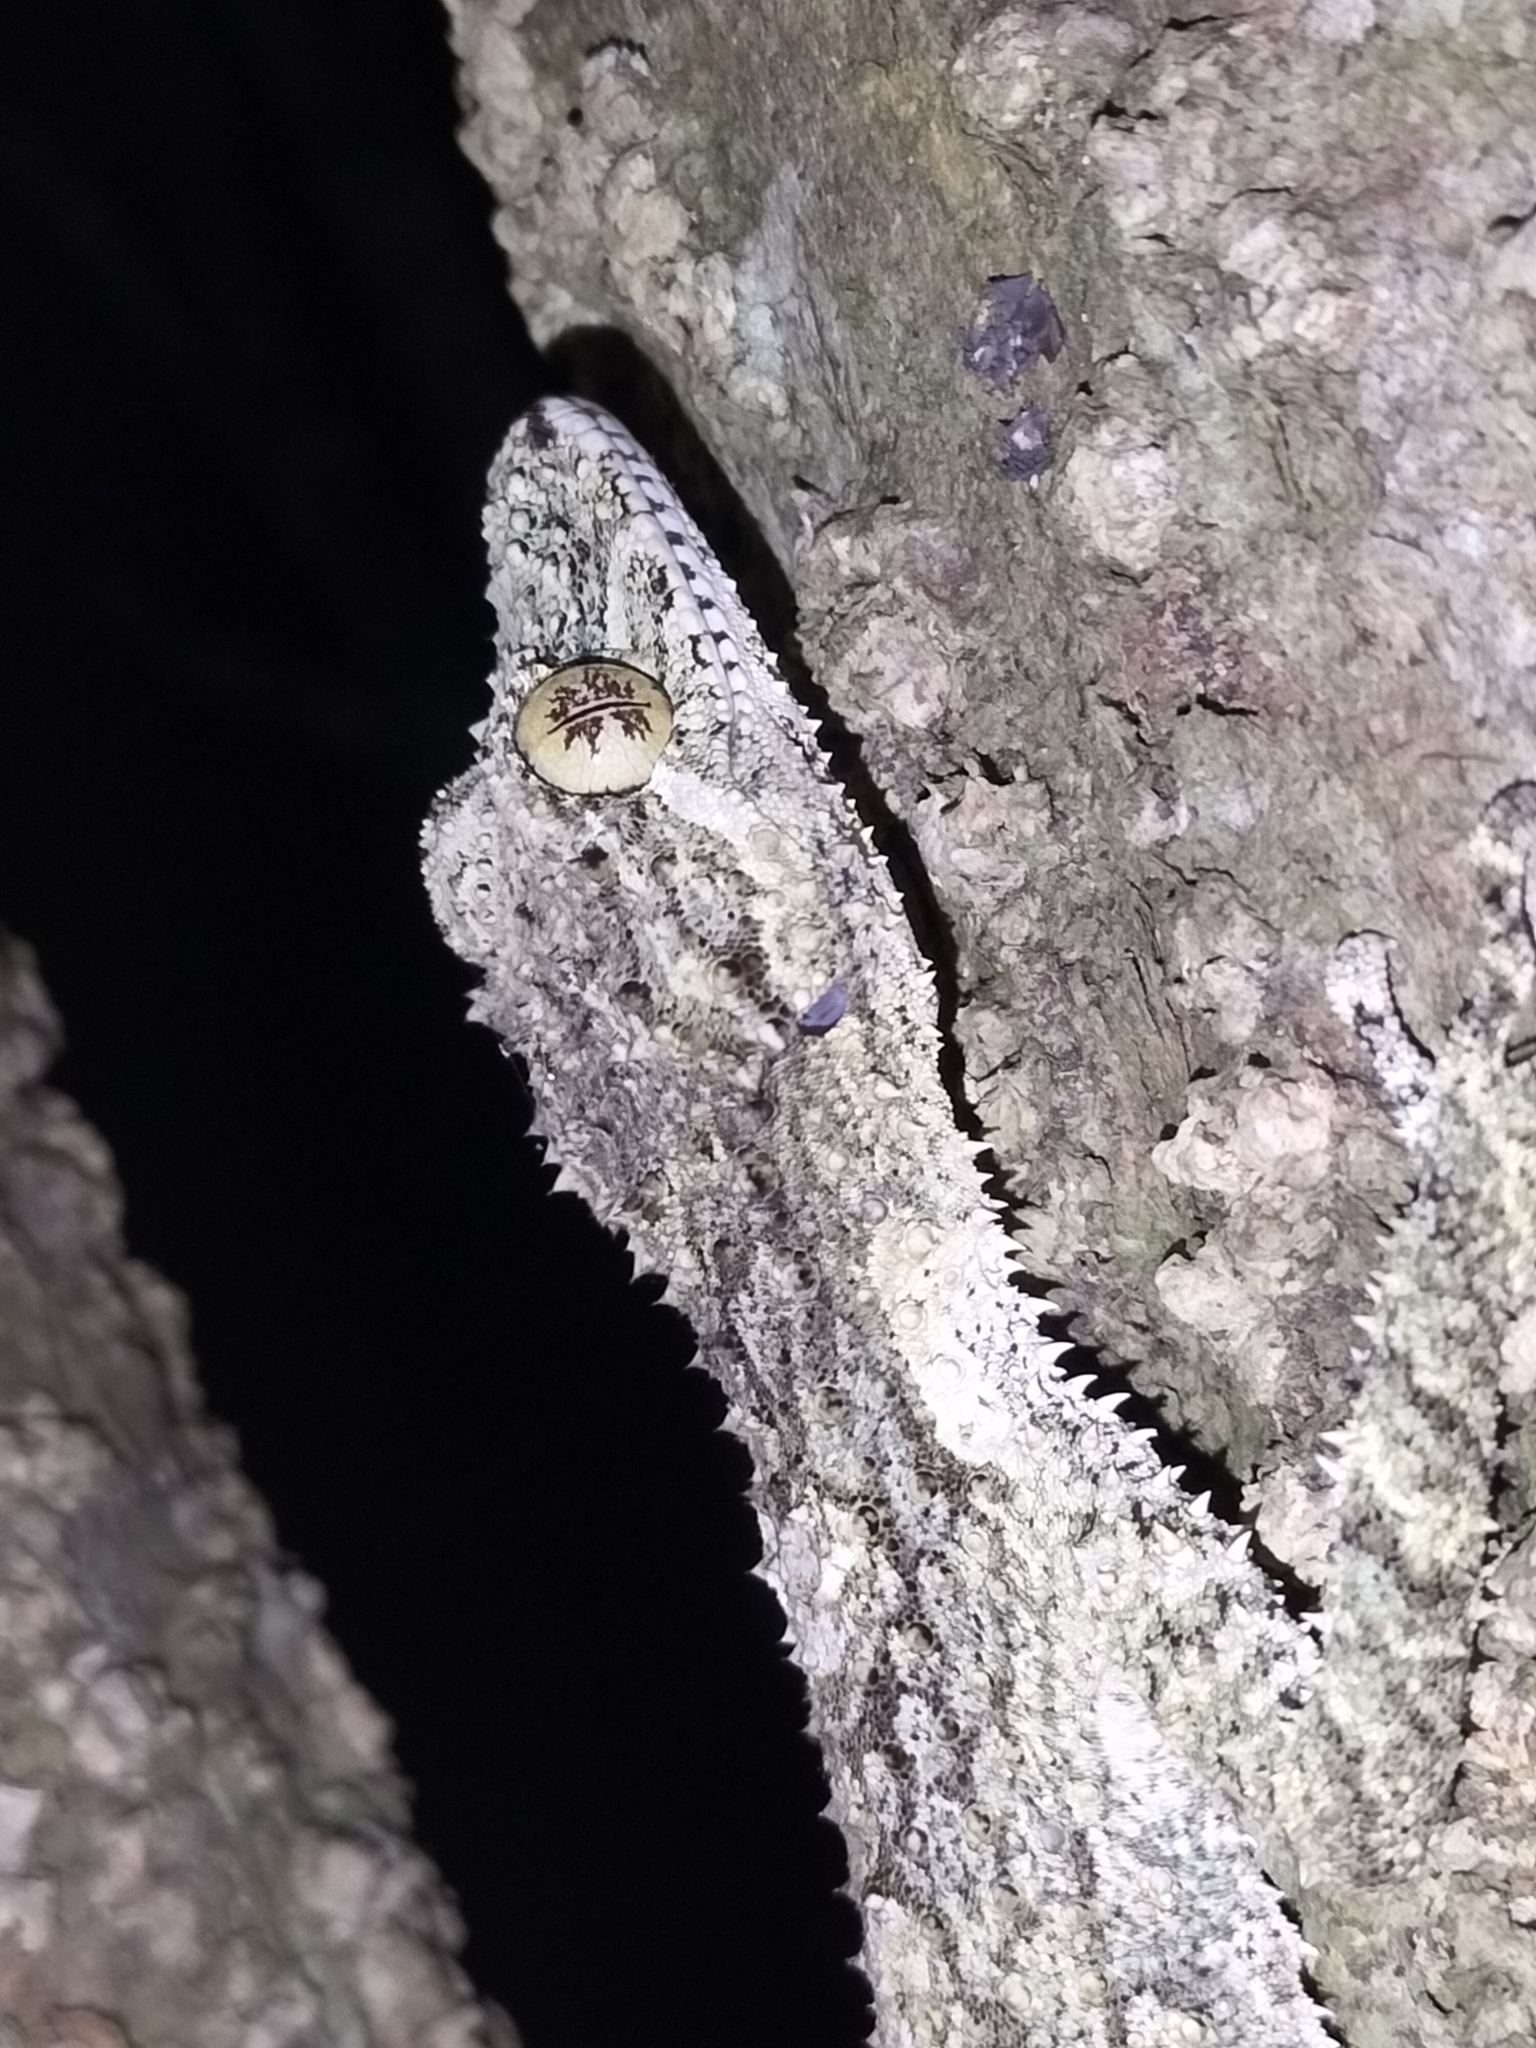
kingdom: Animalia
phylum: Chordata
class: Squamata
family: Carphodactylidae
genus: Saltuarius
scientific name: Saltuarius cornutus
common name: Leaf-tailed gecko
